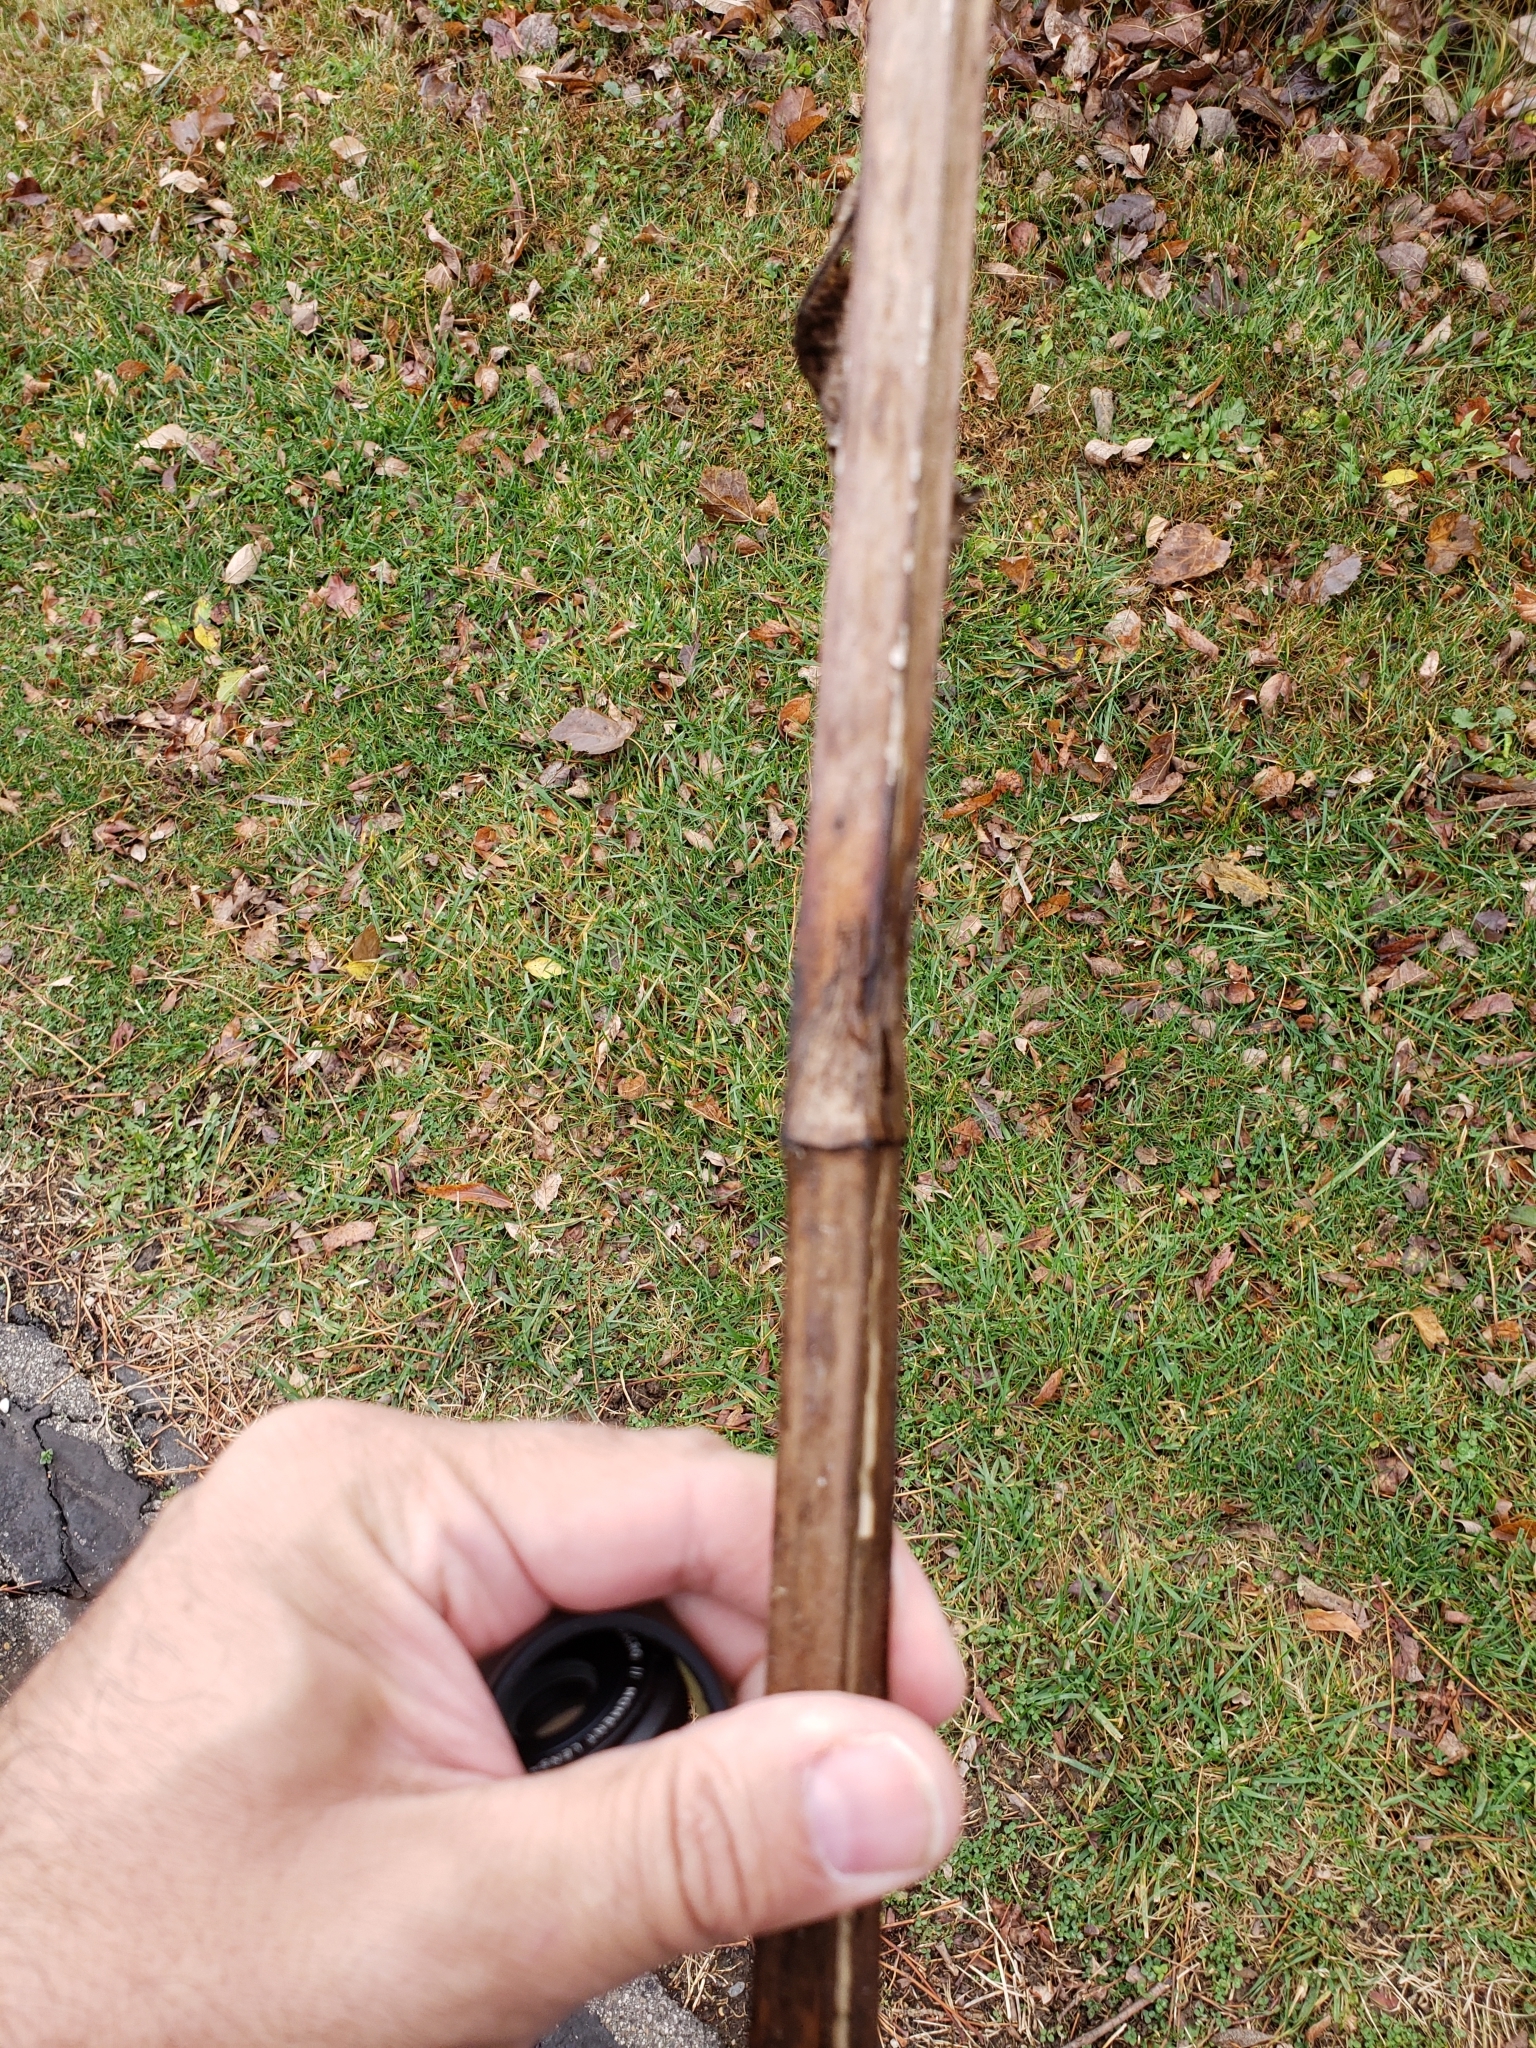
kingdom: Animalia
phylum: Arthropoda
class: Insecta
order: Hymenoptera
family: Cynipidae
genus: Antistrophus
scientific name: Antistrophus
